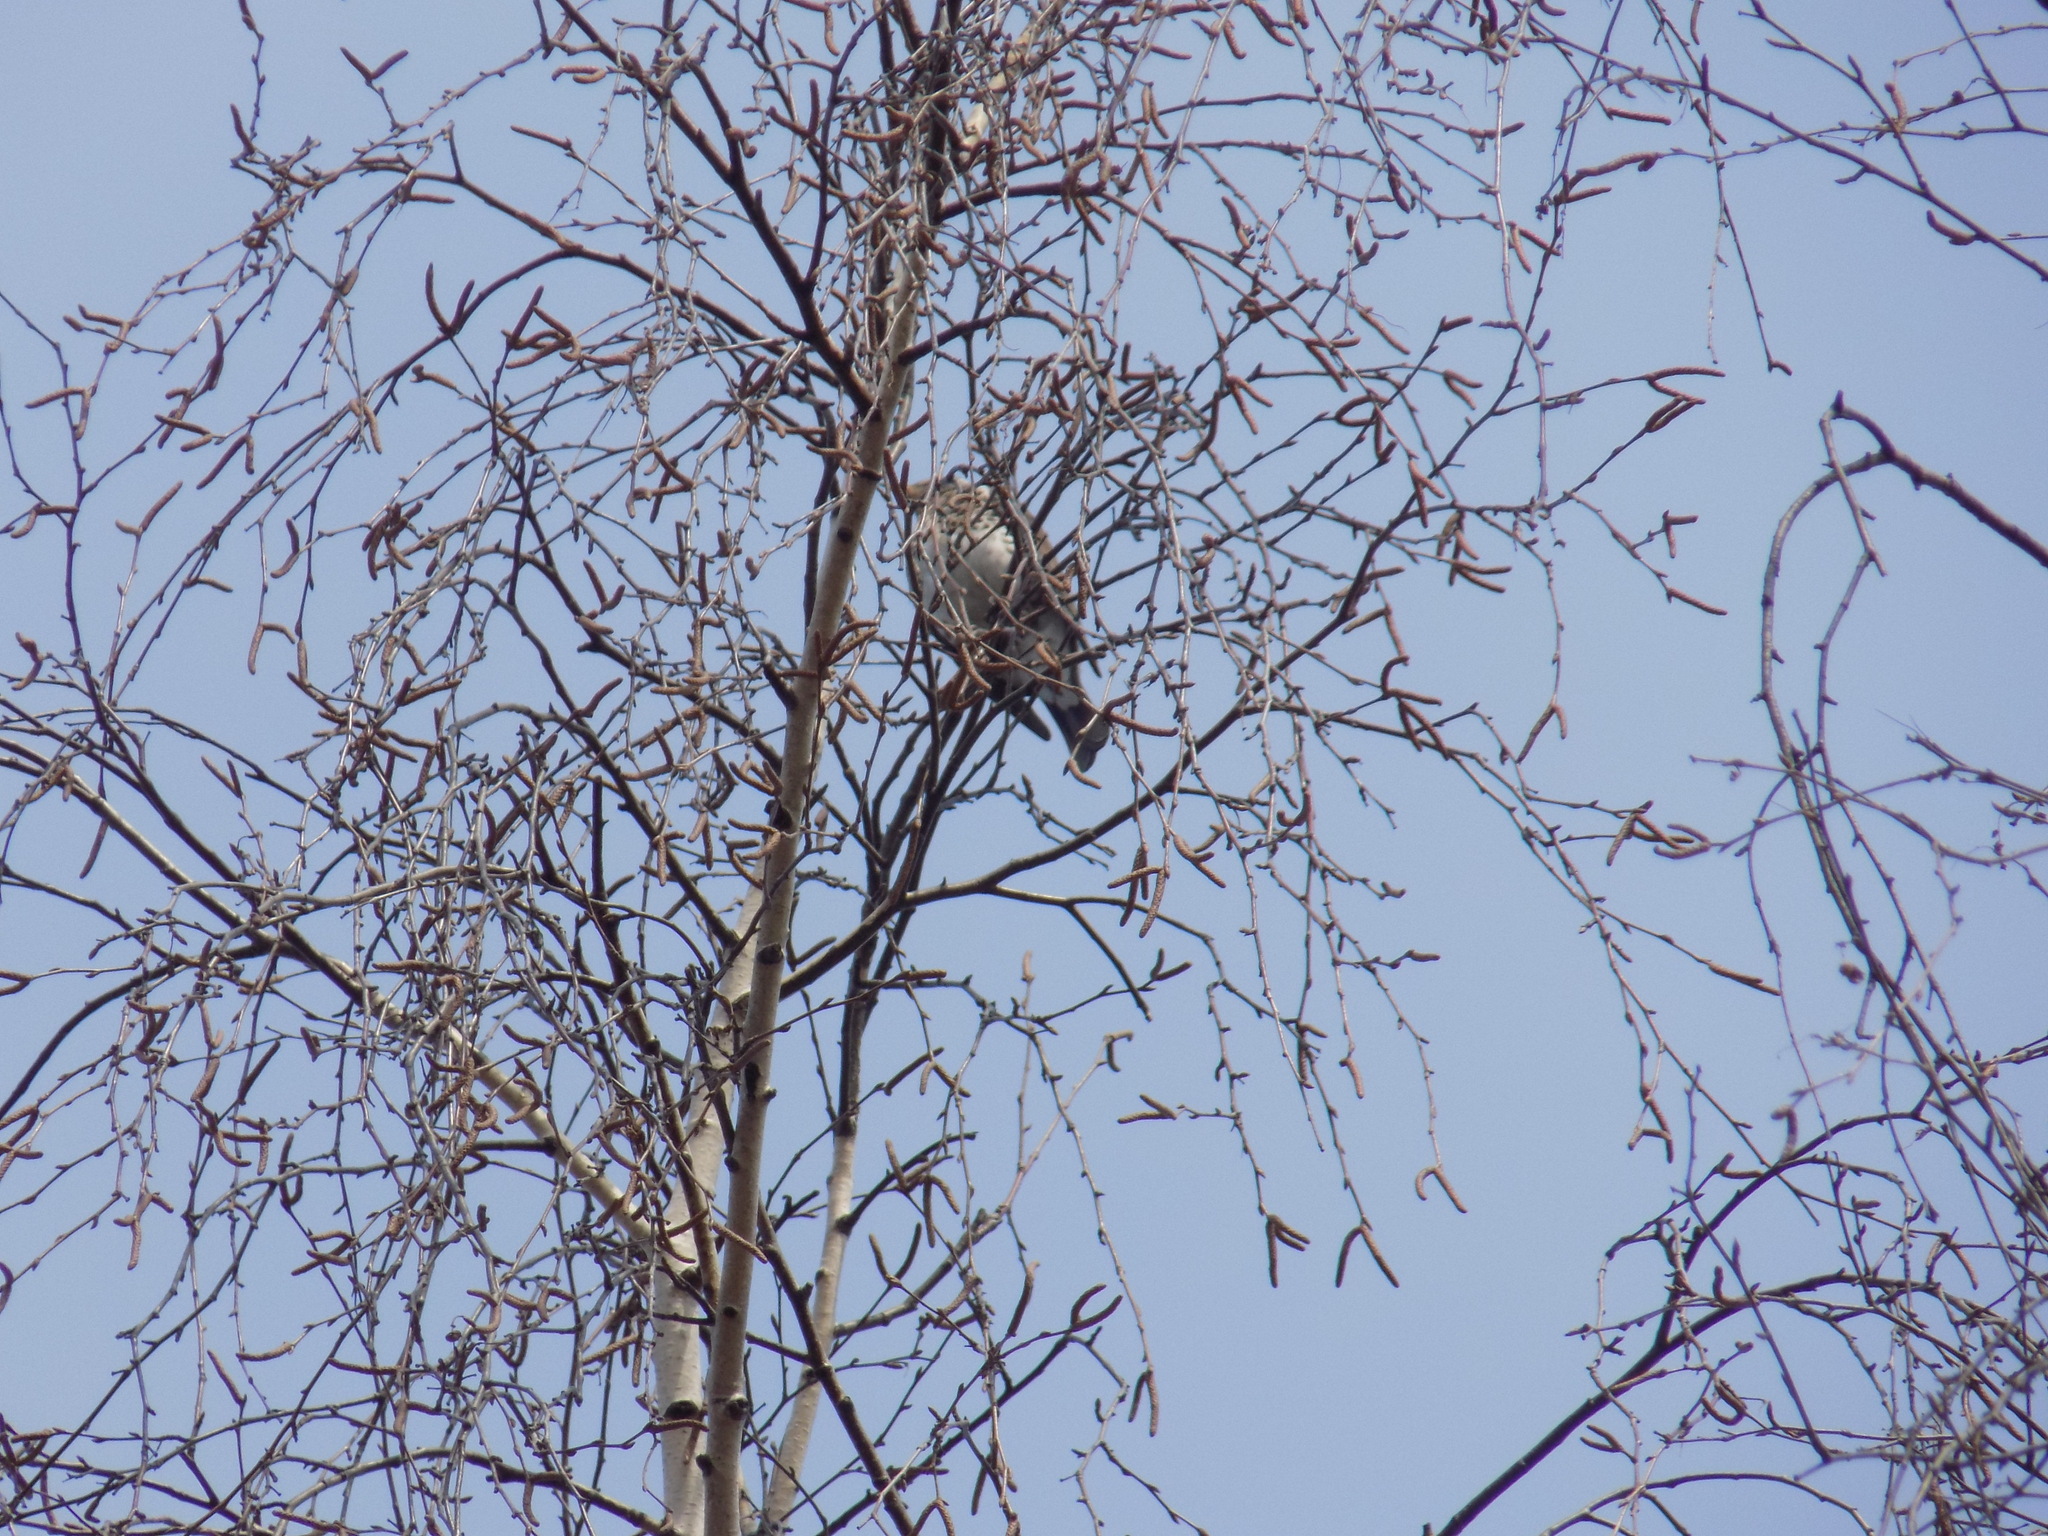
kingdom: Animalia
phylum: Chordata
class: Aves
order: Passeriformes
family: Turdidae
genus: Turdus
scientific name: Turdus pilaris
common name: Fieldfare
